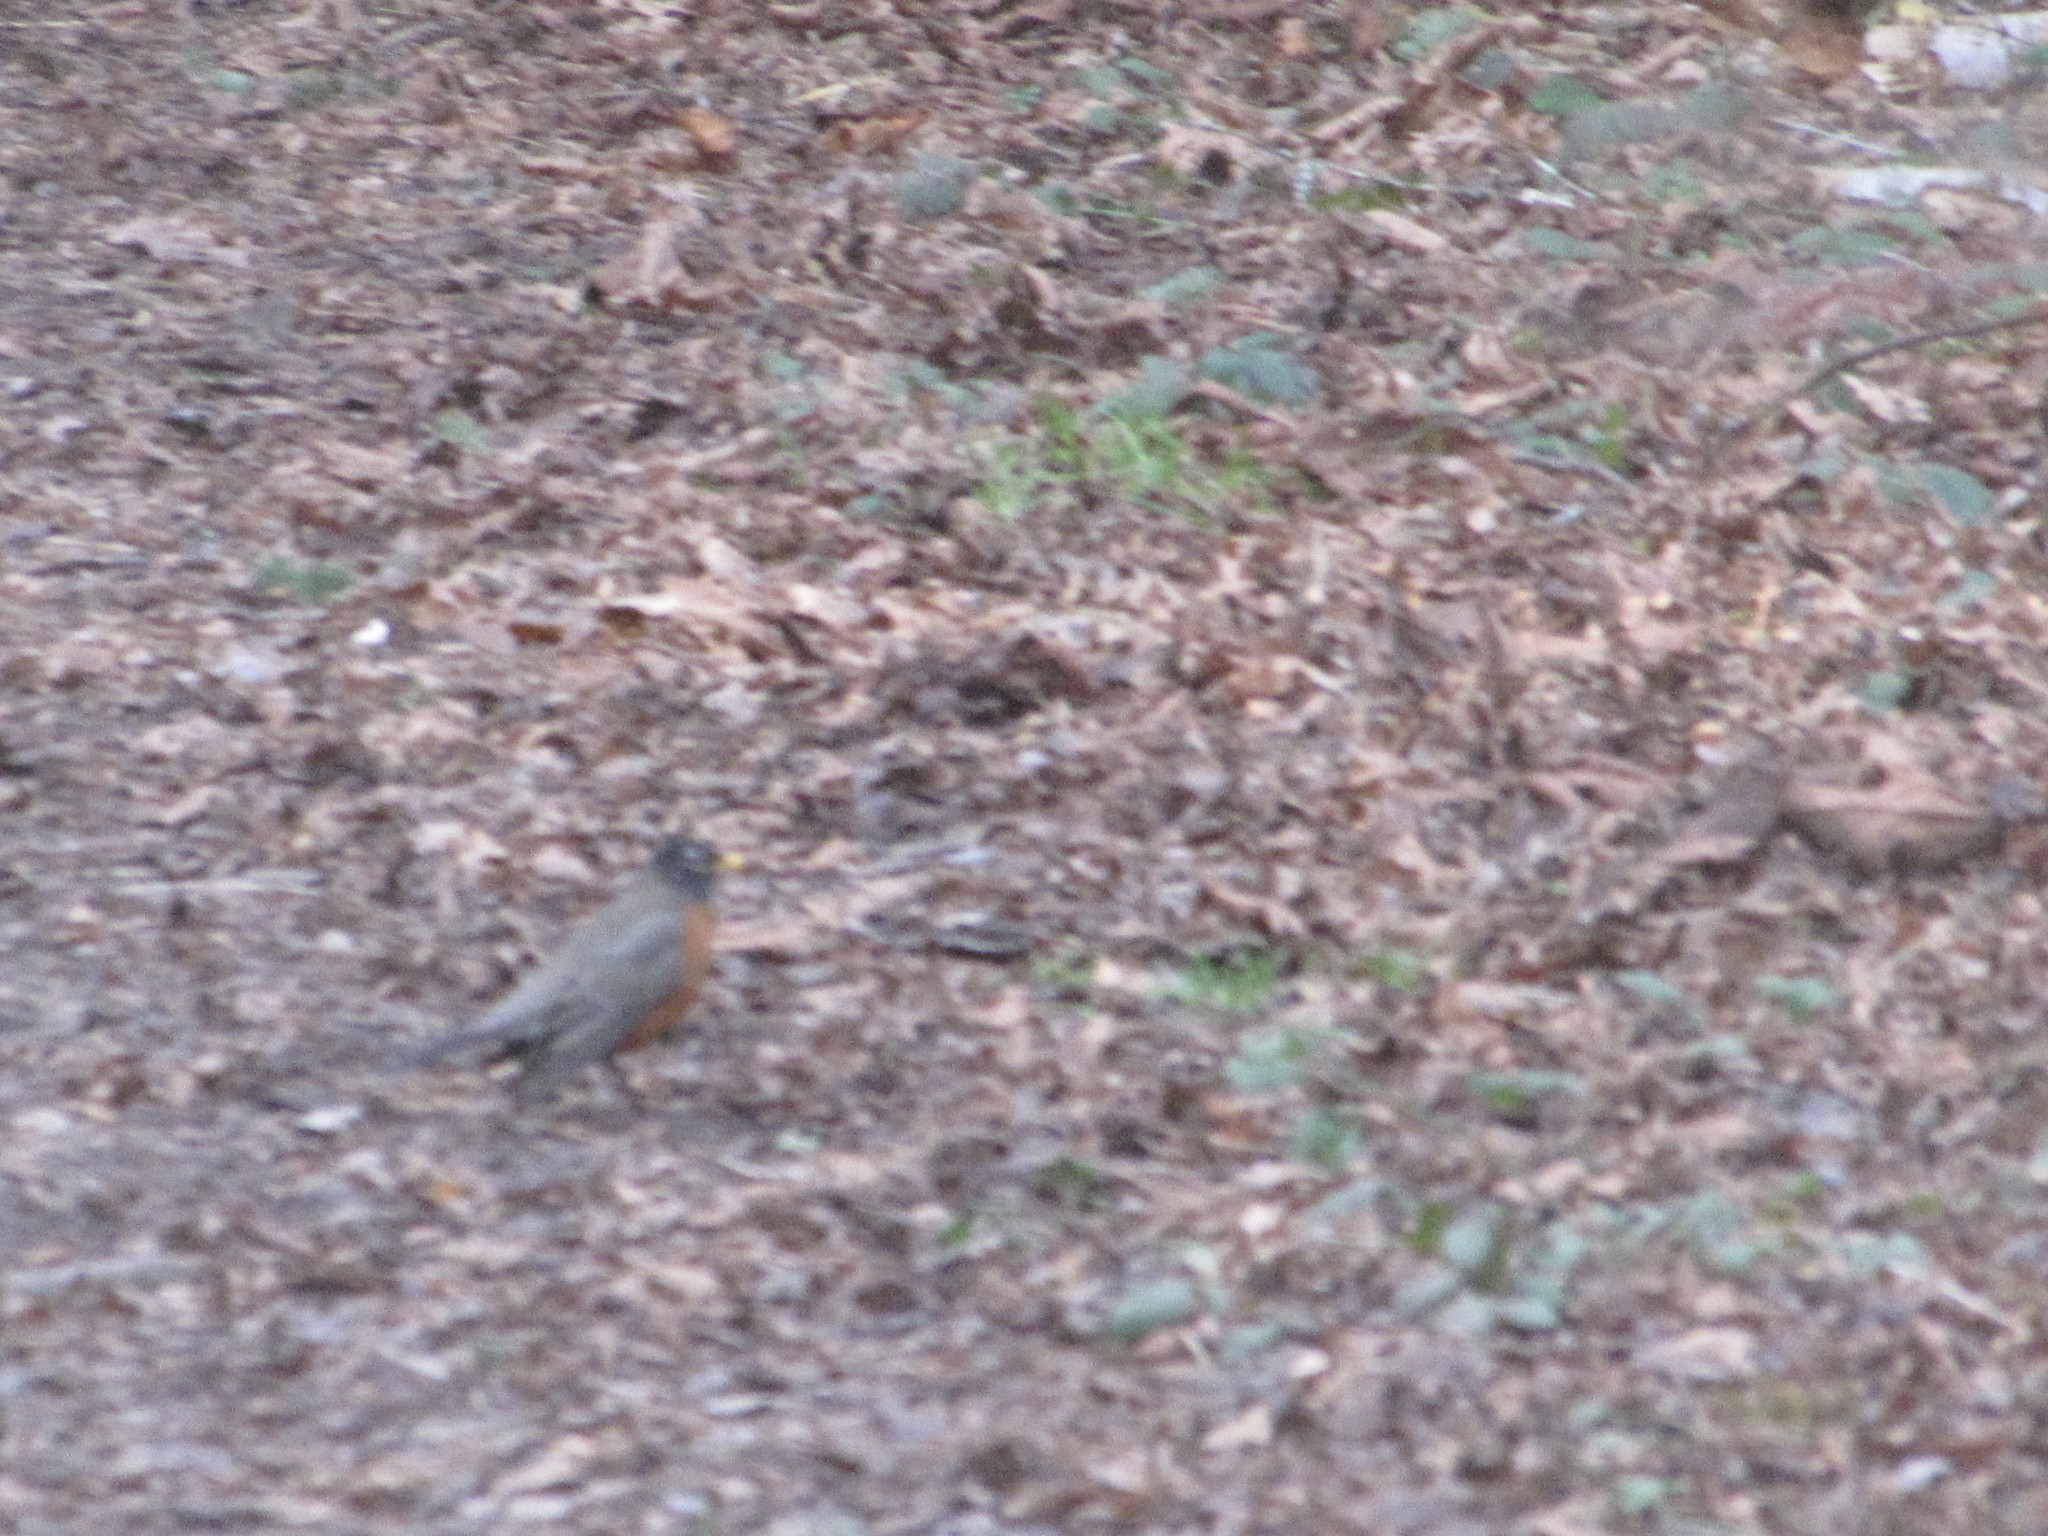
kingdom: Animalia
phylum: Chordata
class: Aves
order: Passeriformes
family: Turdidae
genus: Turdus
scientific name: Turdus migratorius
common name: American robin
